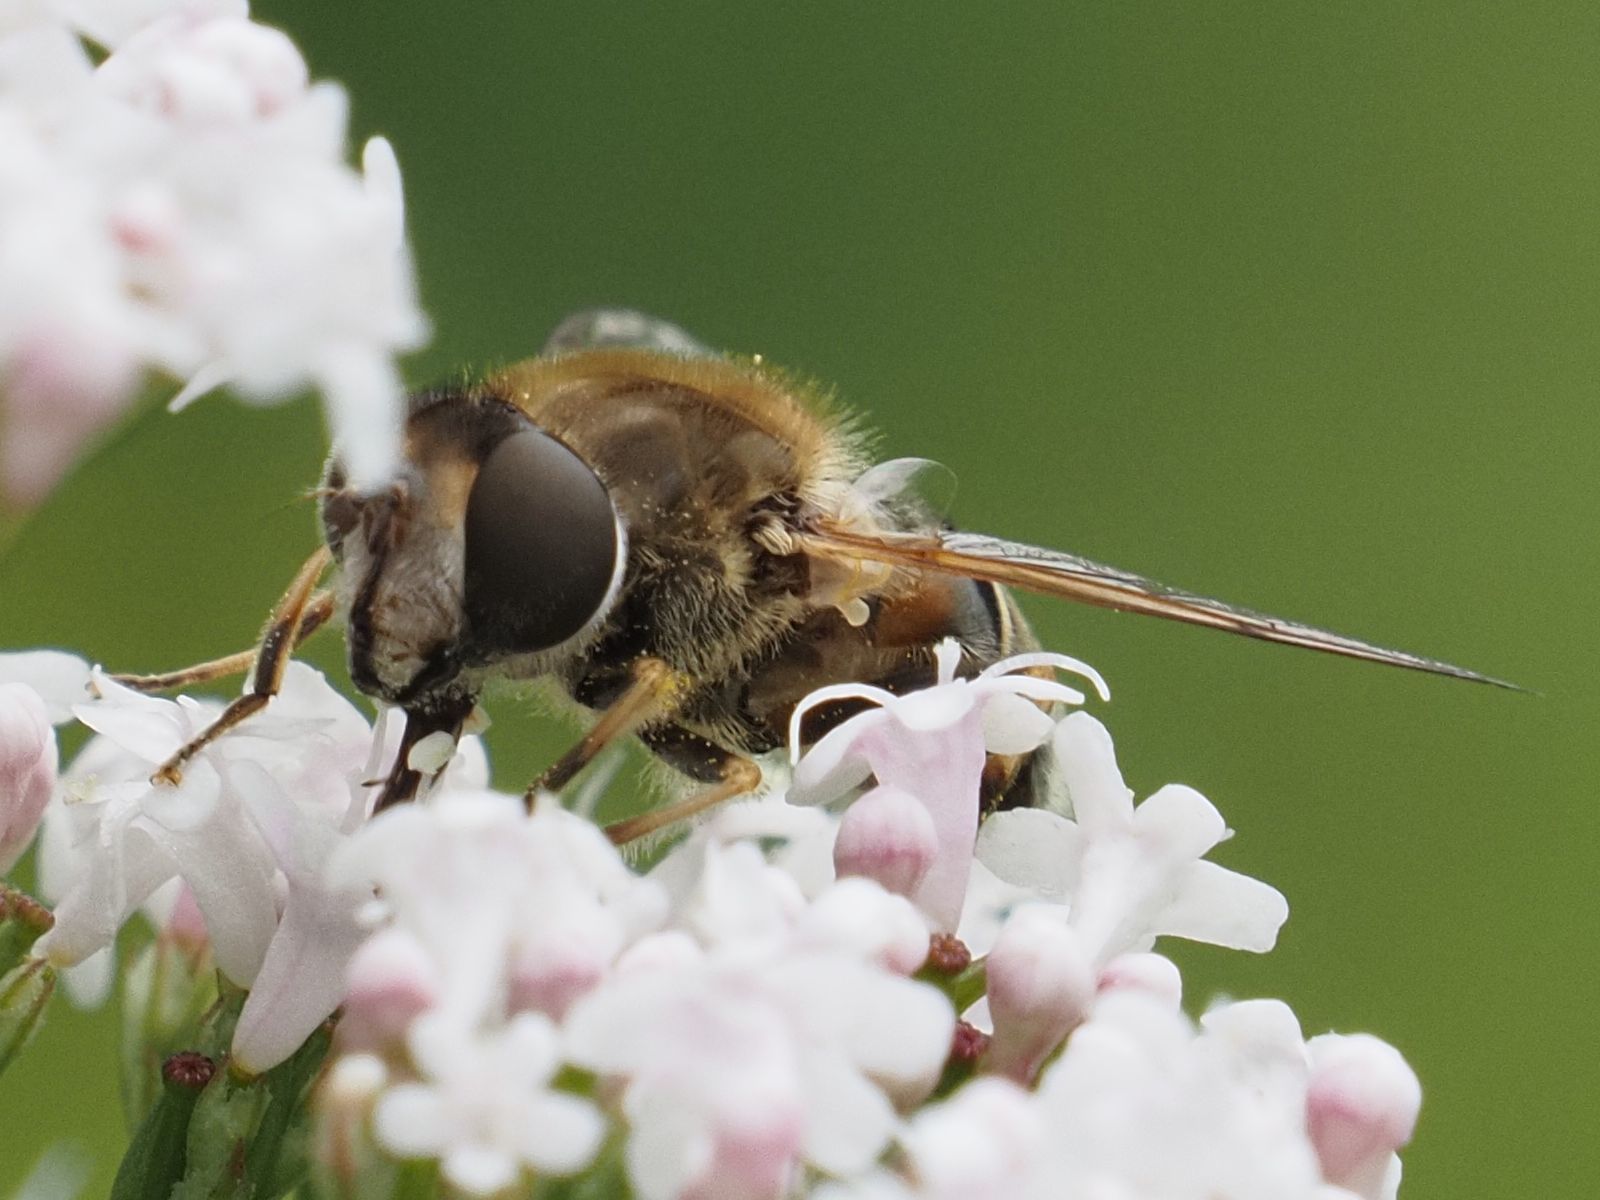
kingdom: Animalia
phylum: Arthropoda
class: Insecta
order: Diptera
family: Syrphidae
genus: Eristalis
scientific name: Eristalis nemorum
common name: Orange-spined drone fly
